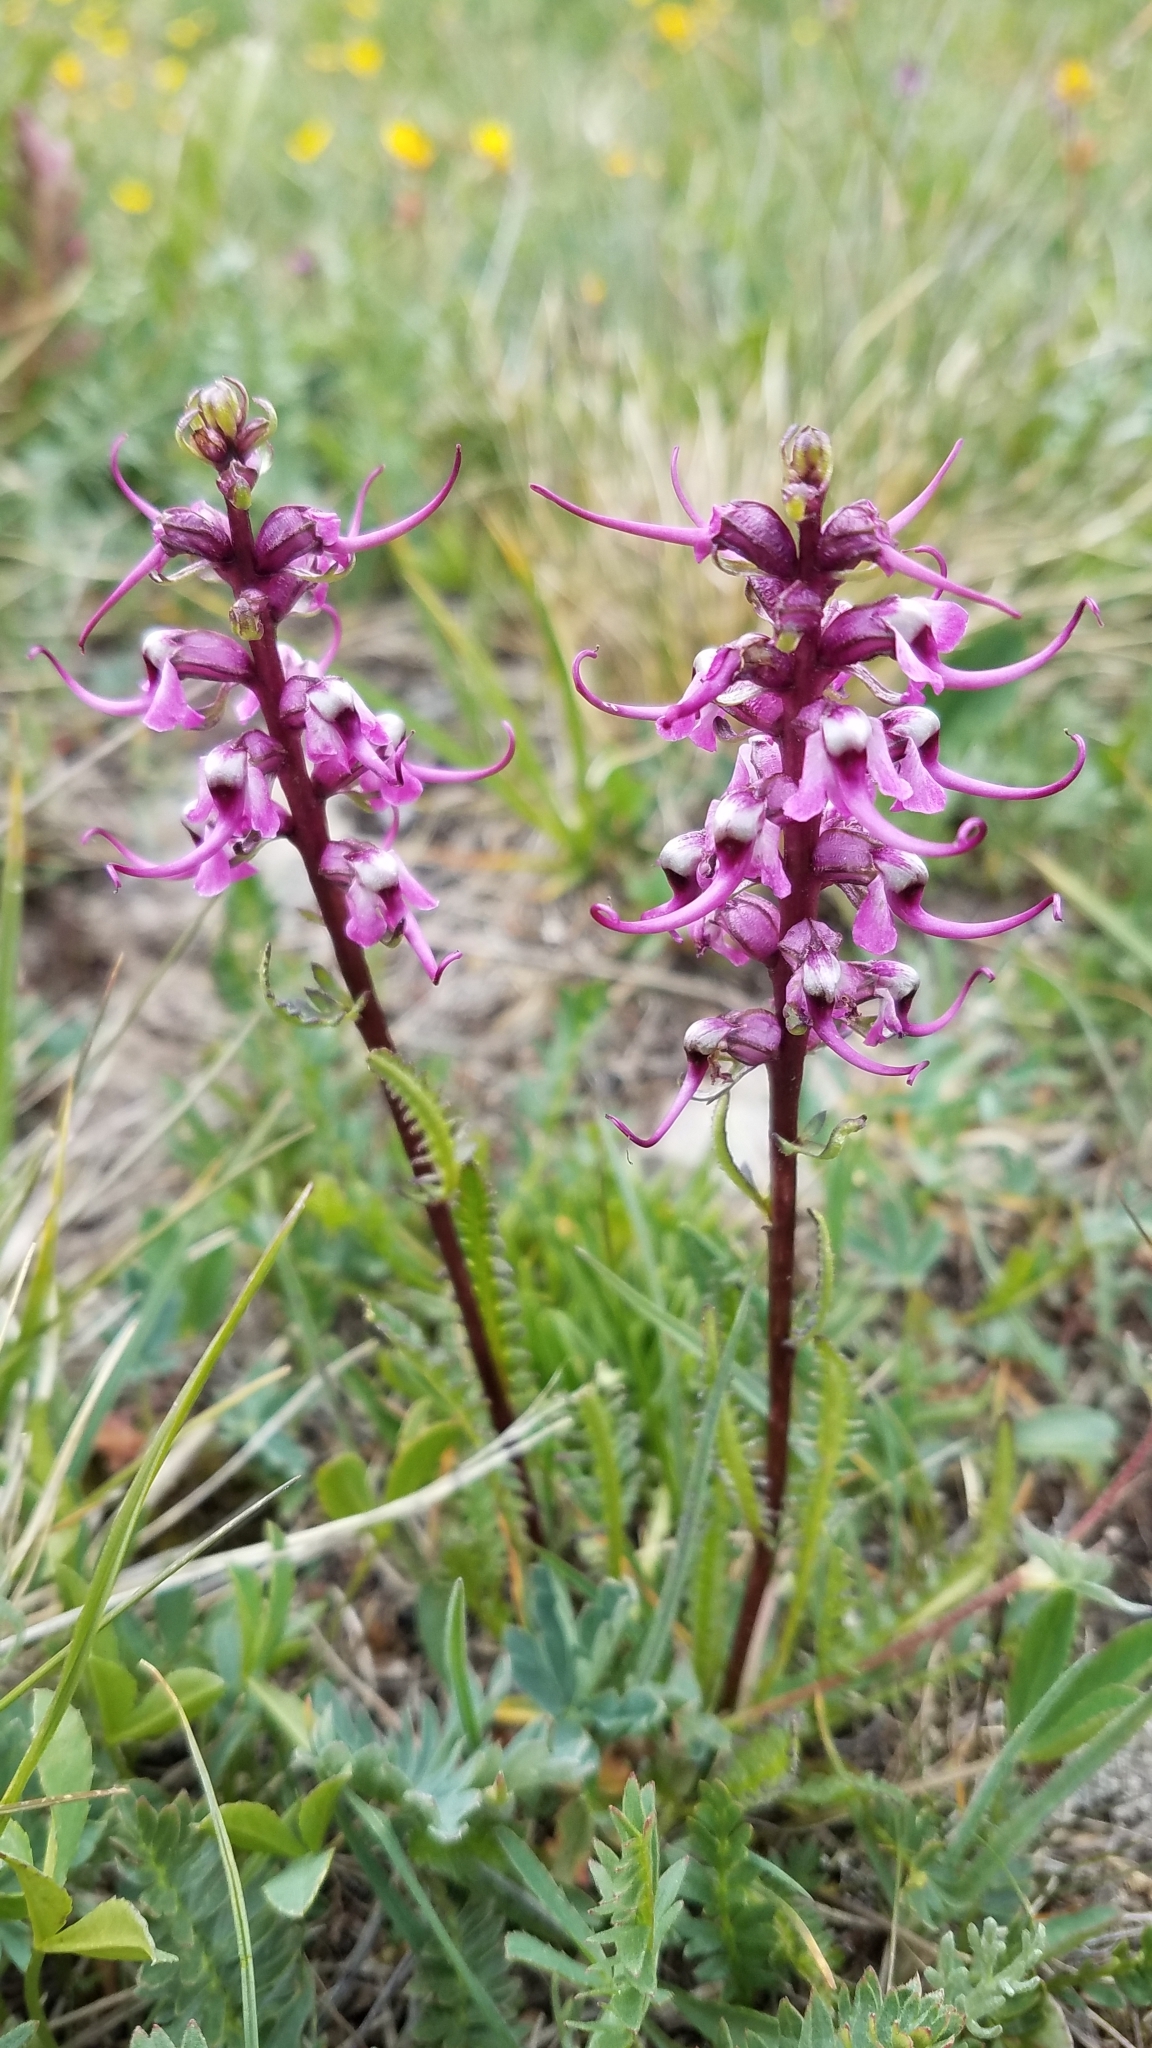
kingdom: Plantae
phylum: Tracheophyta
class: Magnoliopsida
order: Lamiales
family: Orobanchaceae
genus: Pedicularis
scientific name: Pedicularis groenlandica
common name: Elephant's-head
